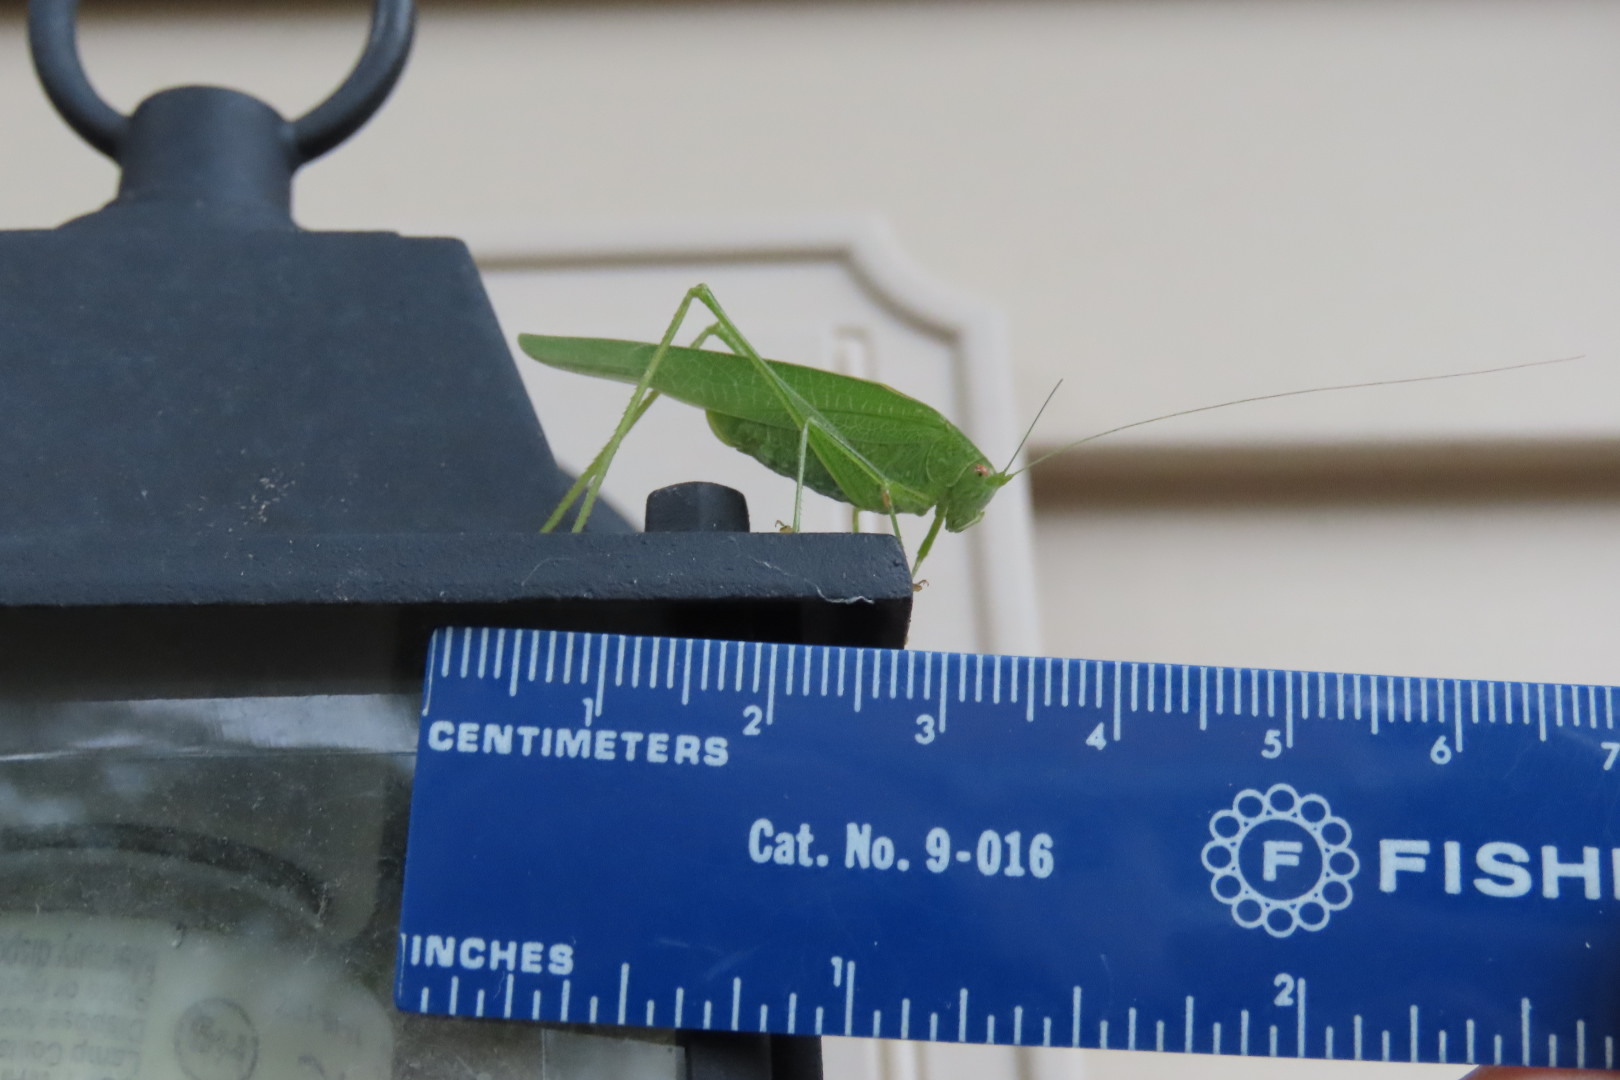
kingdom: Animalia
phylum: Arthropoda
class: Insecta
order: Orthoptera
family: Tettigoniidae
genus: Phaneroptera
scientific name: Phaneroptera nana
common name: Southern sickle bush-cricket
